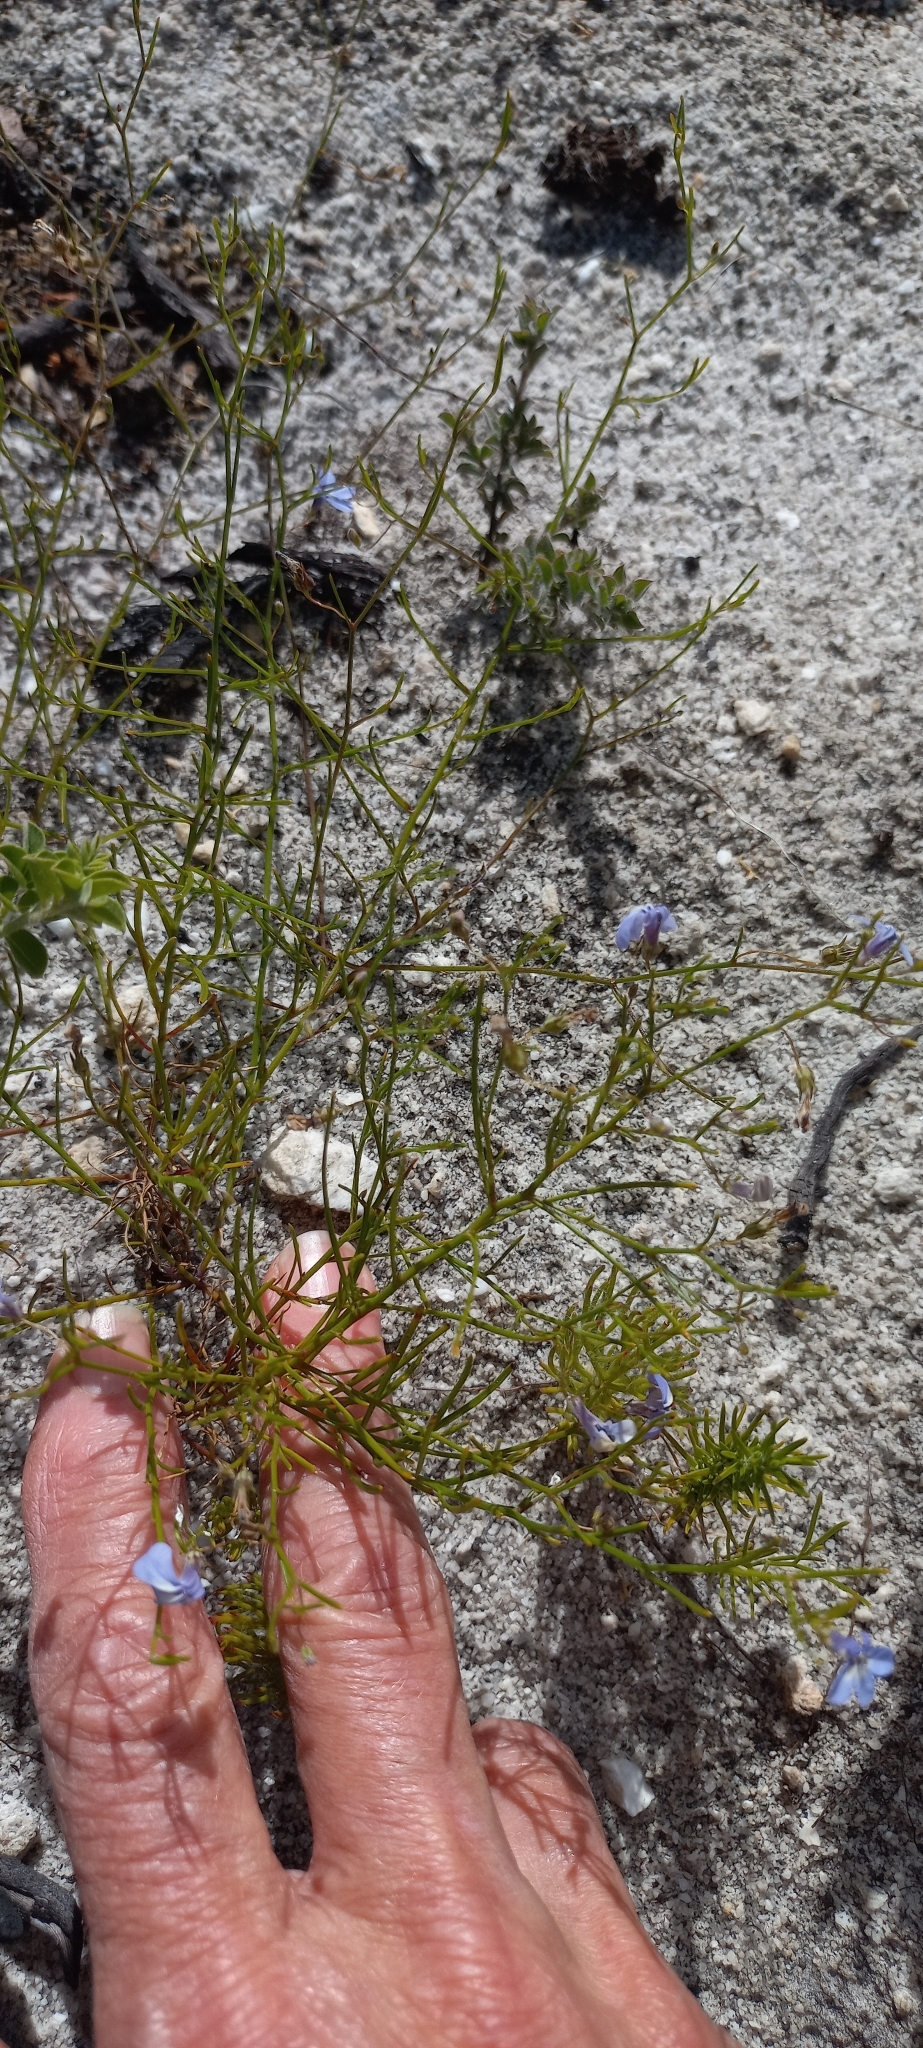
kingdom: Plantae
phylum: Tracheophyta
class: Magnoliopsida
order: Asterales
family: Campanulaceae
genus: Lobelia
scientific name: Lobelia setacea
